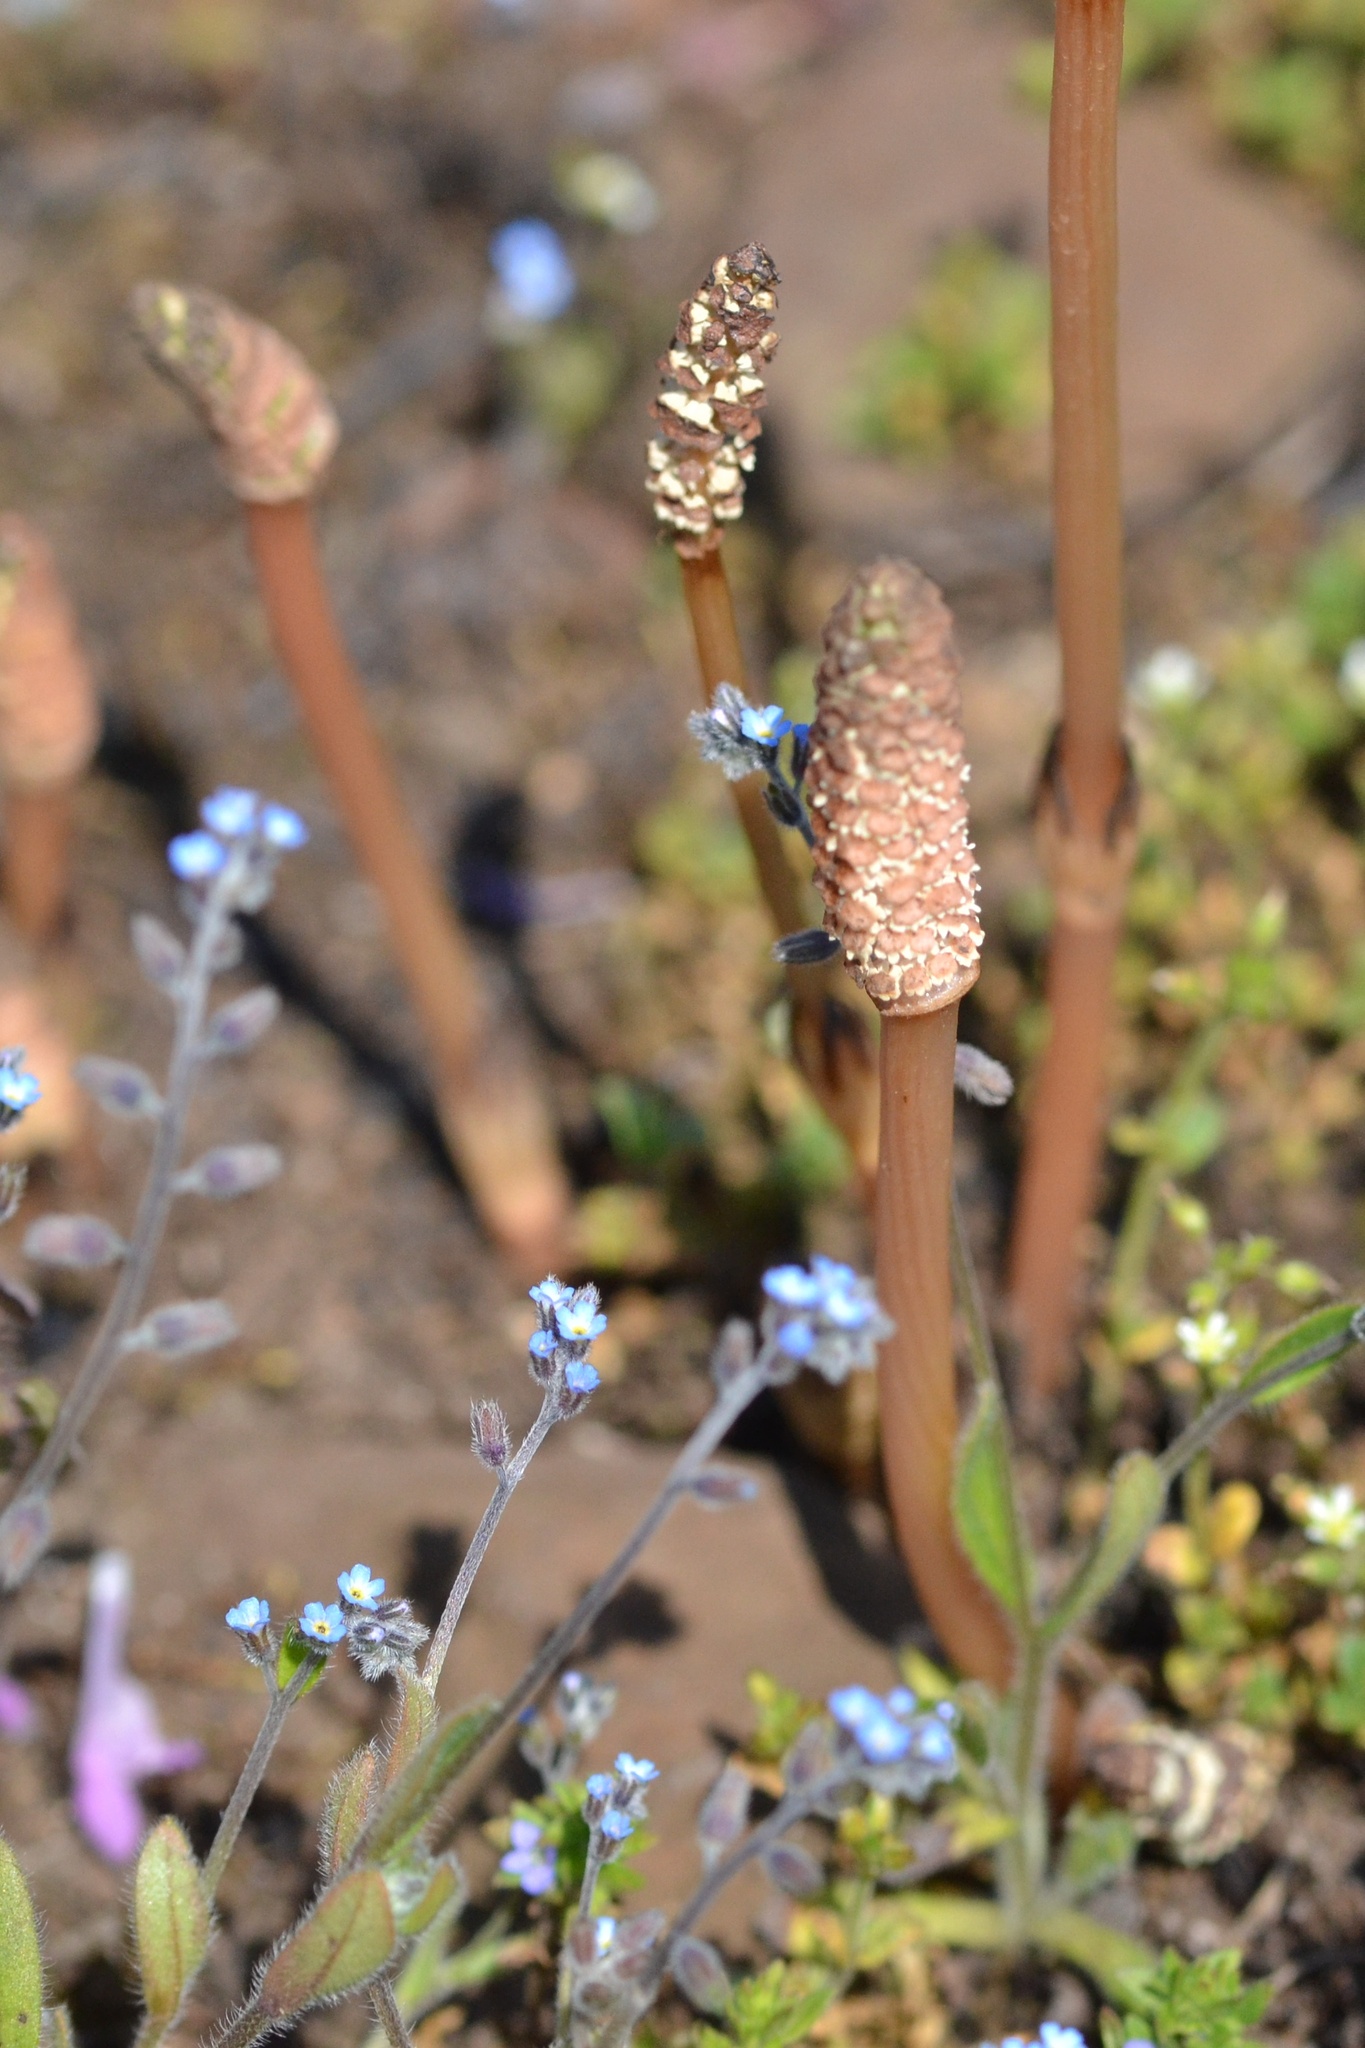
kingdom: Plantae
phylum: Tracheophyta
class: Polypodiopsida
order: Equisetales
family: Equisetaceae
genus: Equisetum
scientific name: Equisetum arvense
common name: Field horsetail
